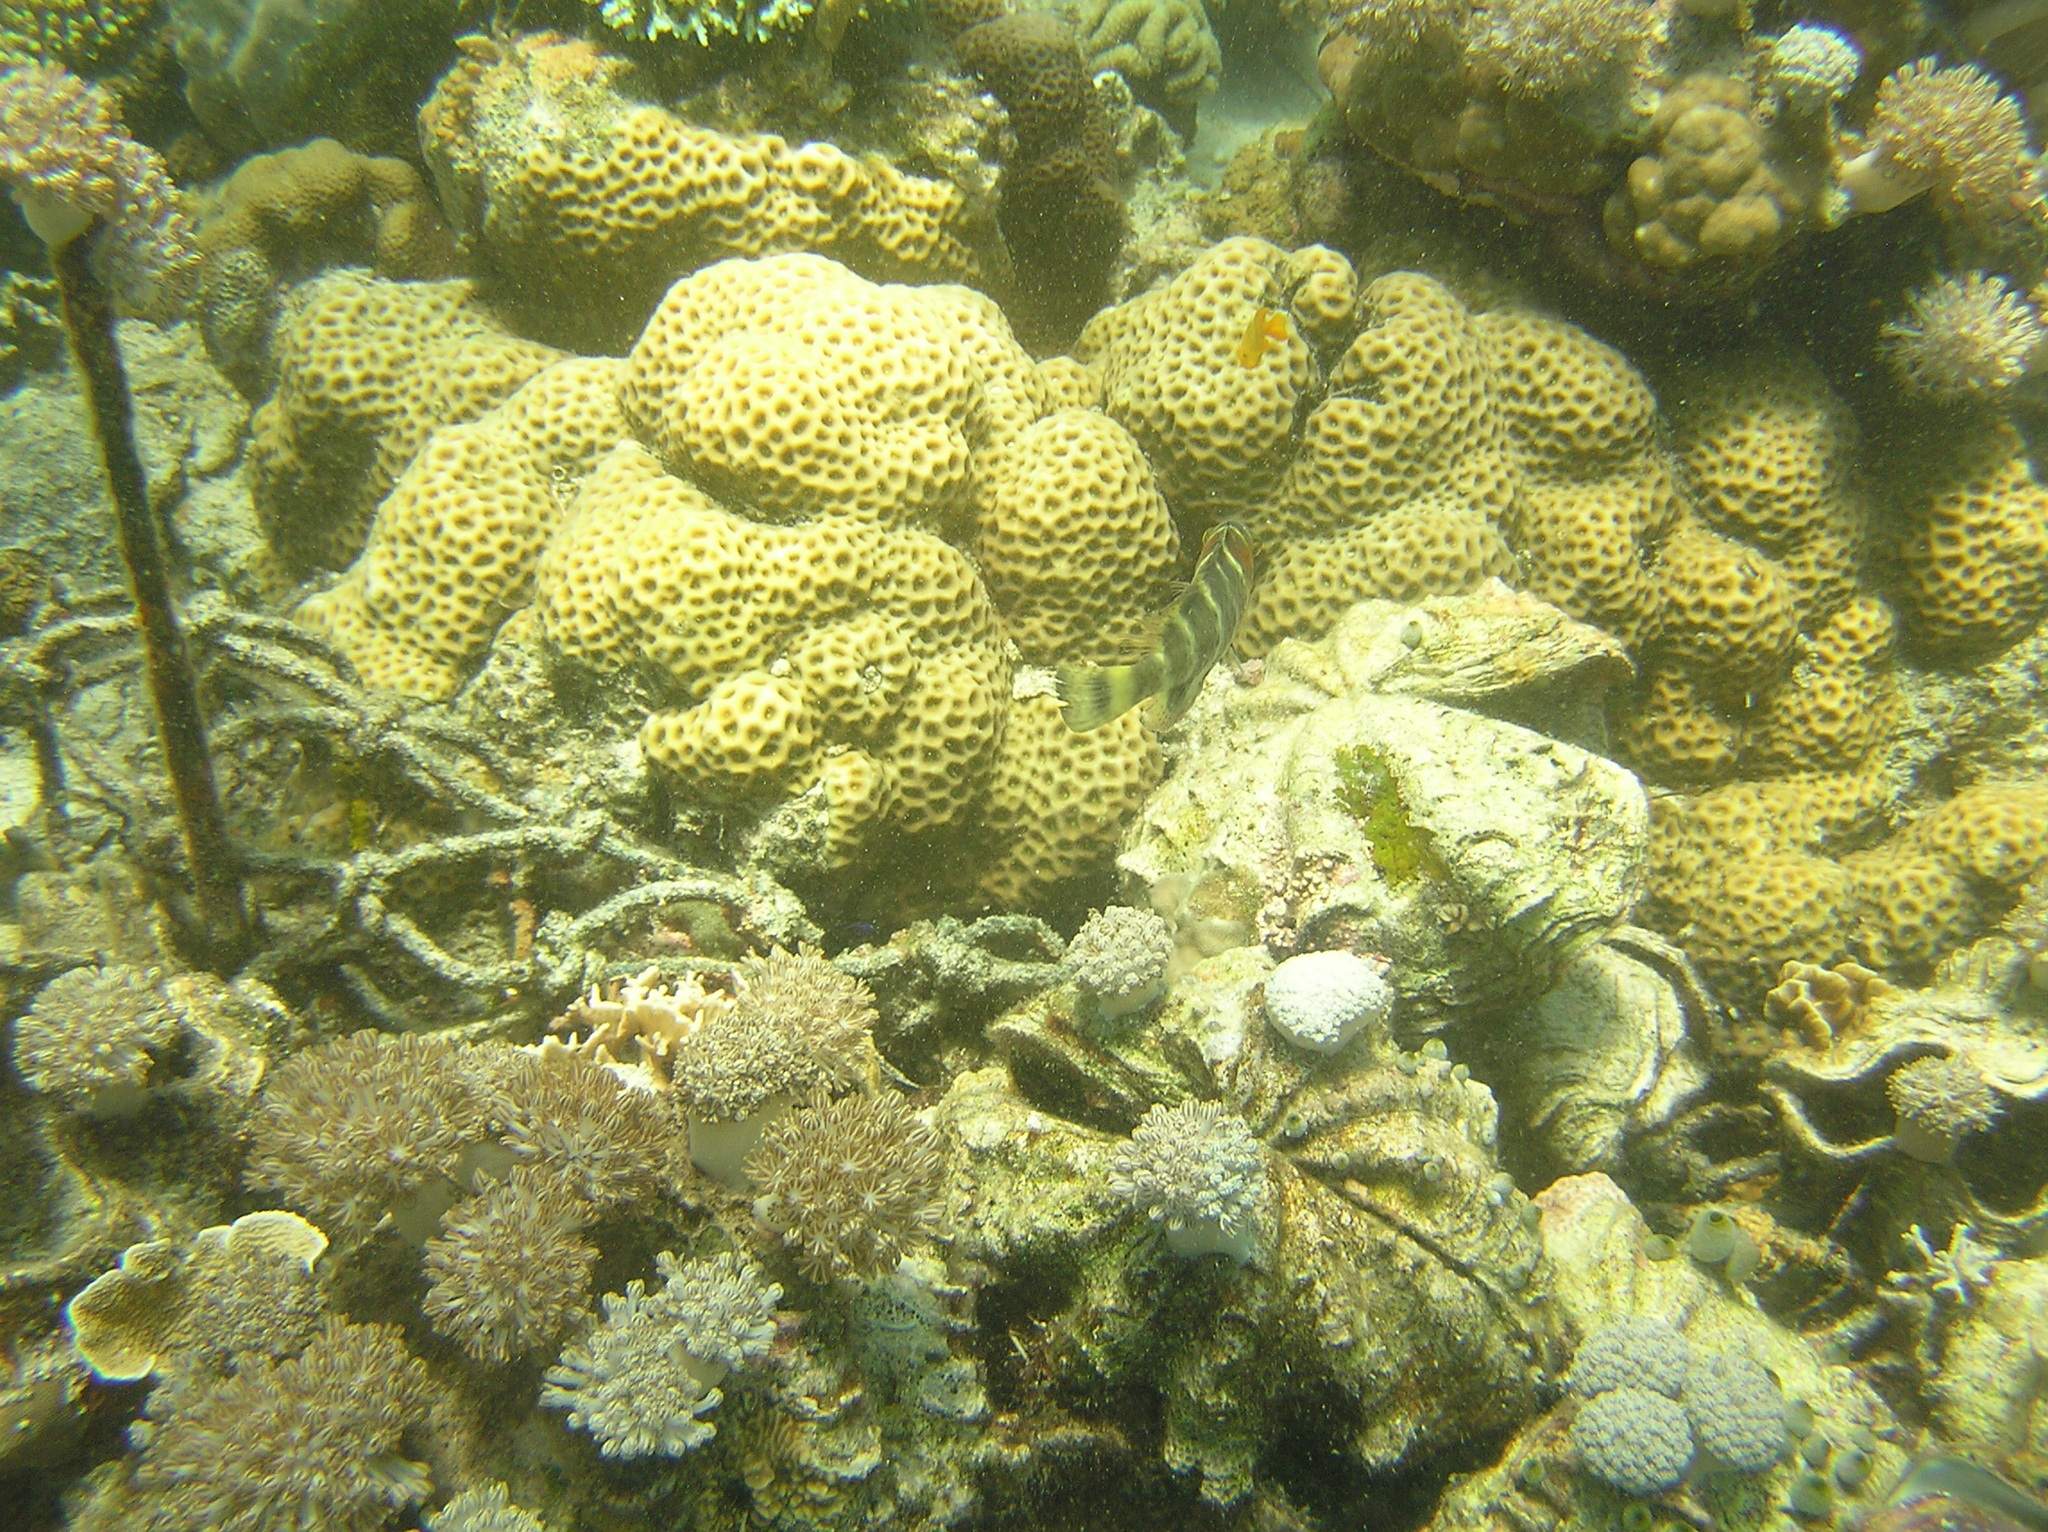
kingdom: Animalia
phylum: Chordata
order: Perciformes
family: Labridae
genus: Cheilinus
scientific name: Cheilinus fasciatus
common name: Red-breasted wrasse
